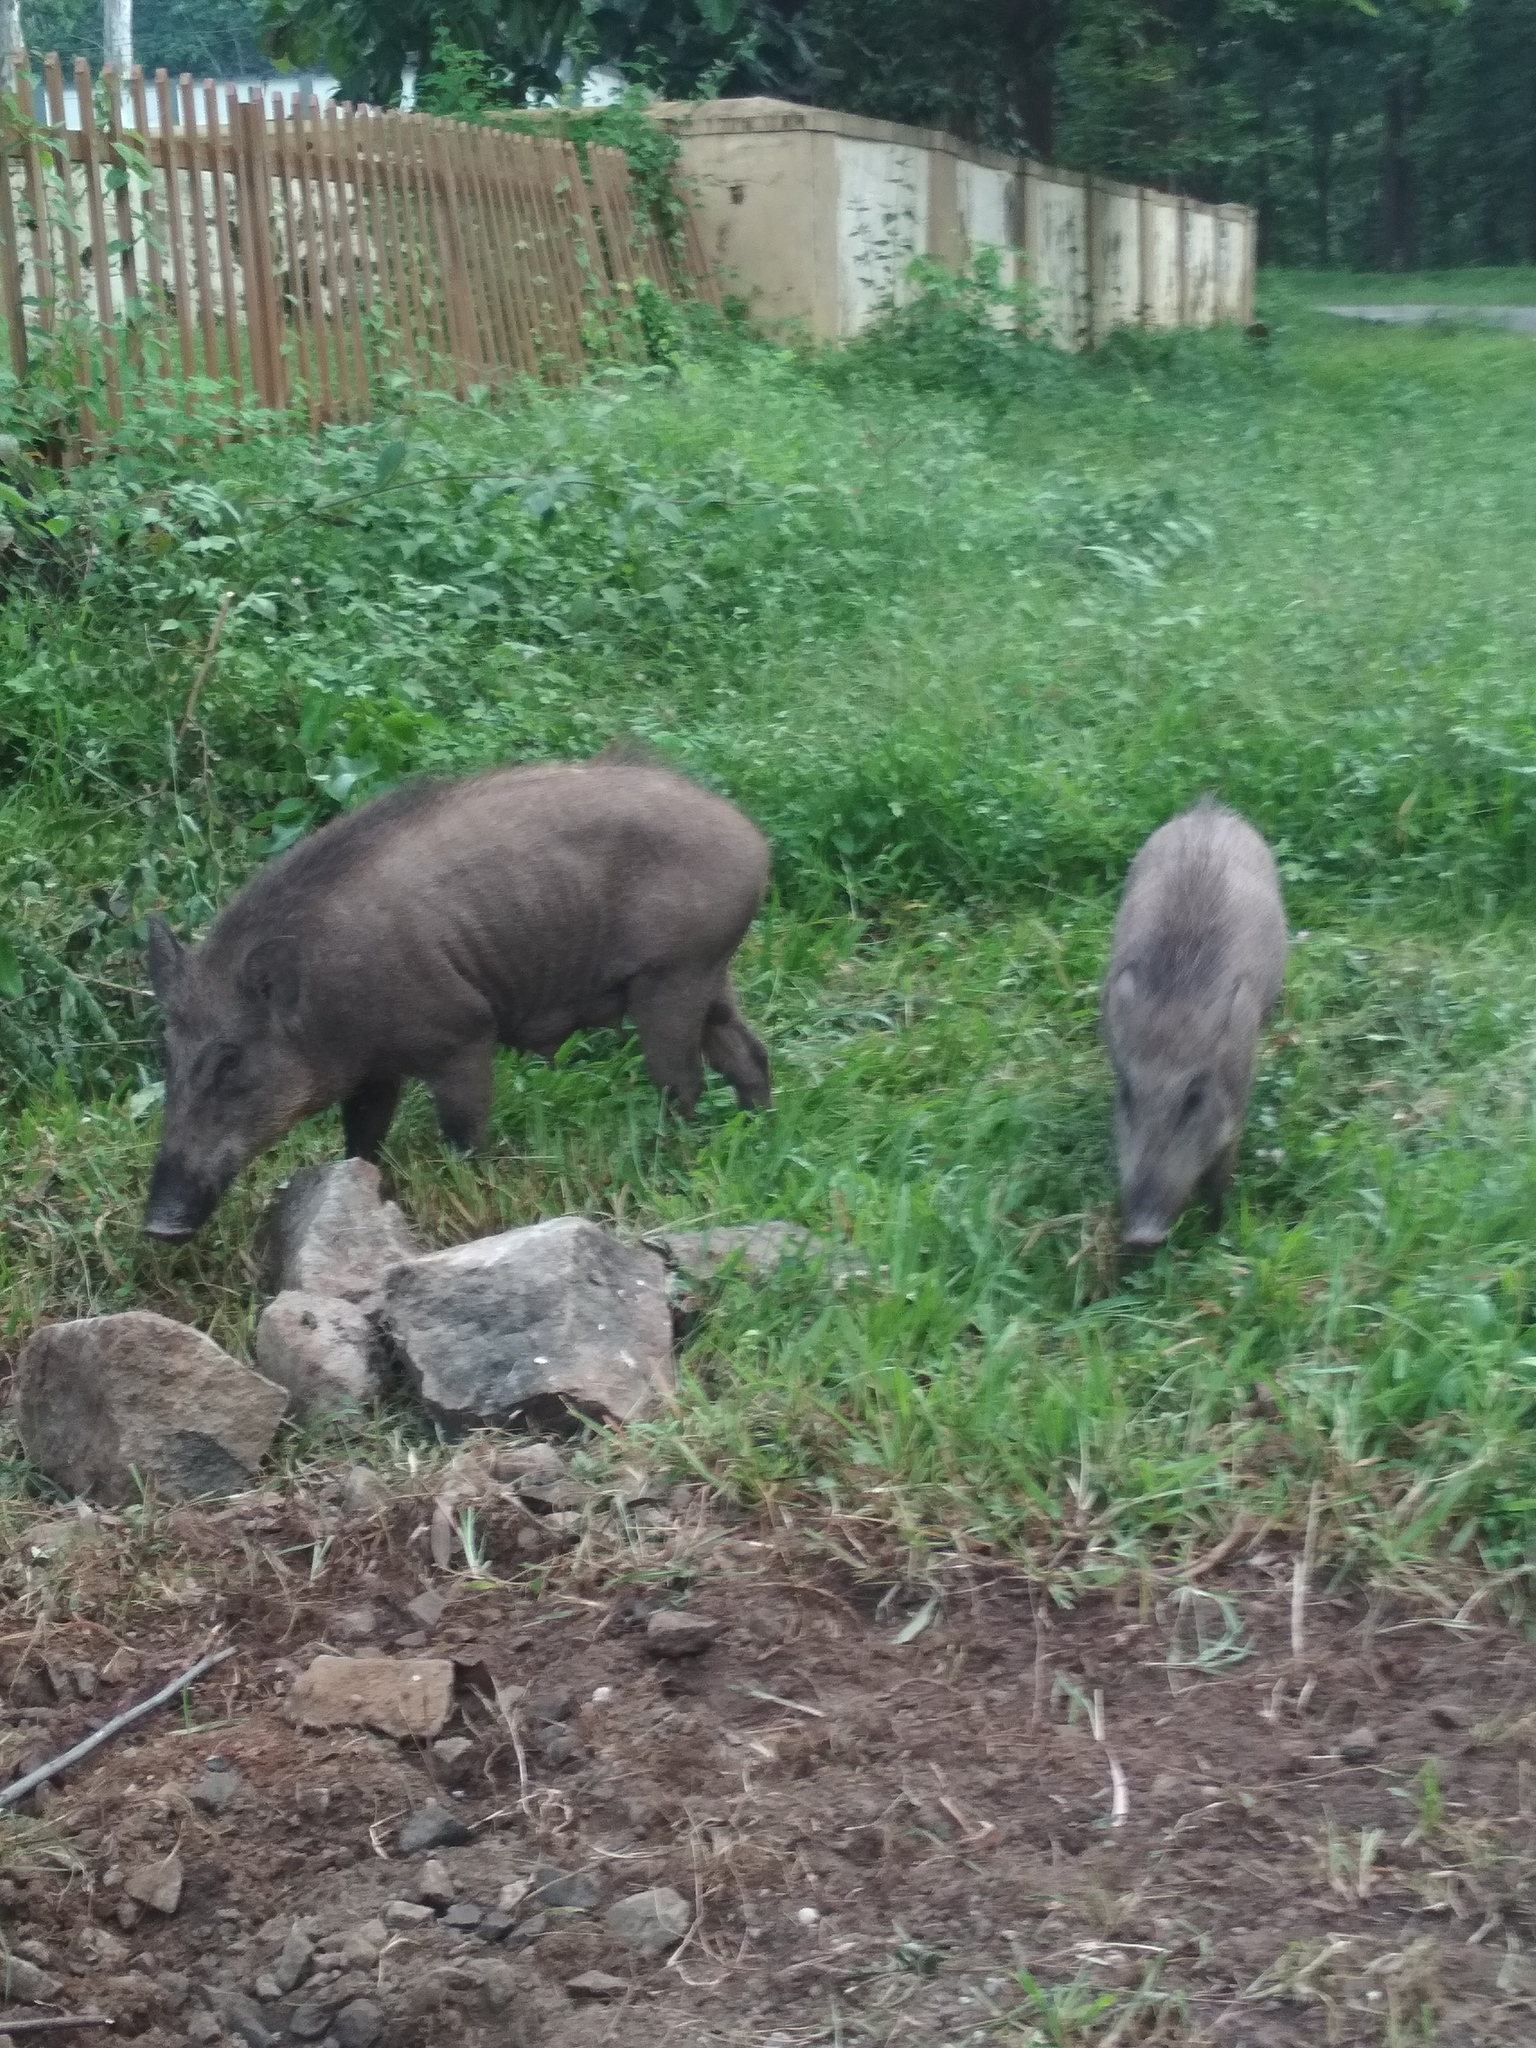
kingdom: Animalia
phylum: Chordata
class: Mammalia
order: Artiodactyla
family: Suidae
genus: Sus
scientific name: Sus scrofa
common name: Wild boar
